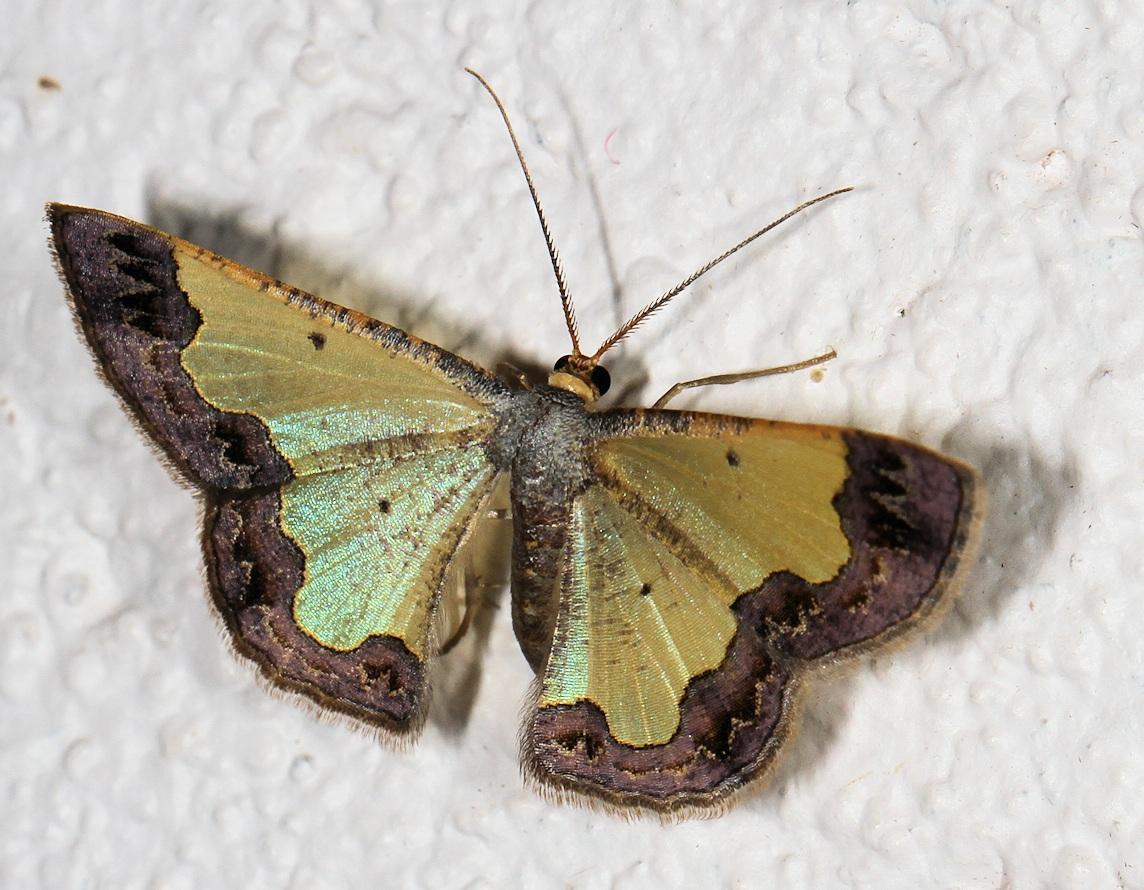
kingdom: Animalia
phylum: Arthropoda
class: Insecta
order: Lepidoptera
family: Geometridae
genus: Zamarada
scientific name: Zamarada plana
